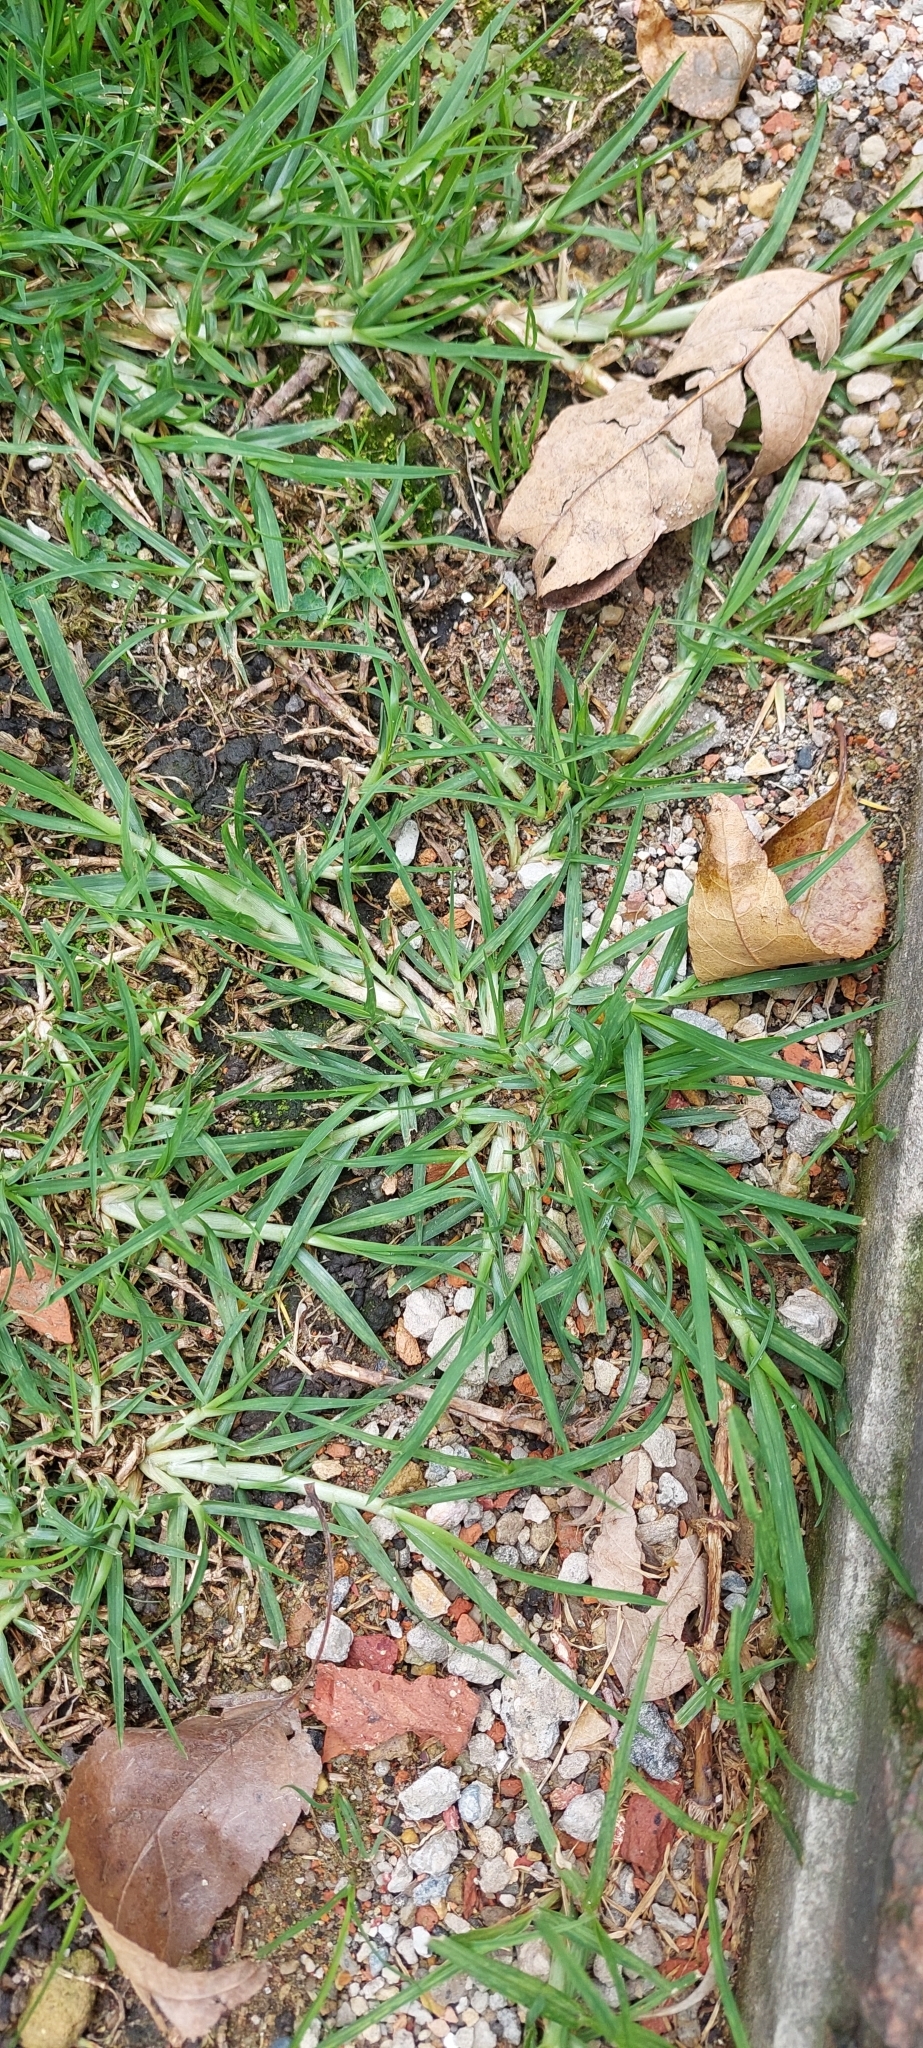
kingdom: Plantae
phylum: Tracheophyta
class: Liliopsida
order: Poales
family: Poaceae
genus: Cenchrus
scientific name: Cenchrus clandestinus
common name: Kikuyugrass
